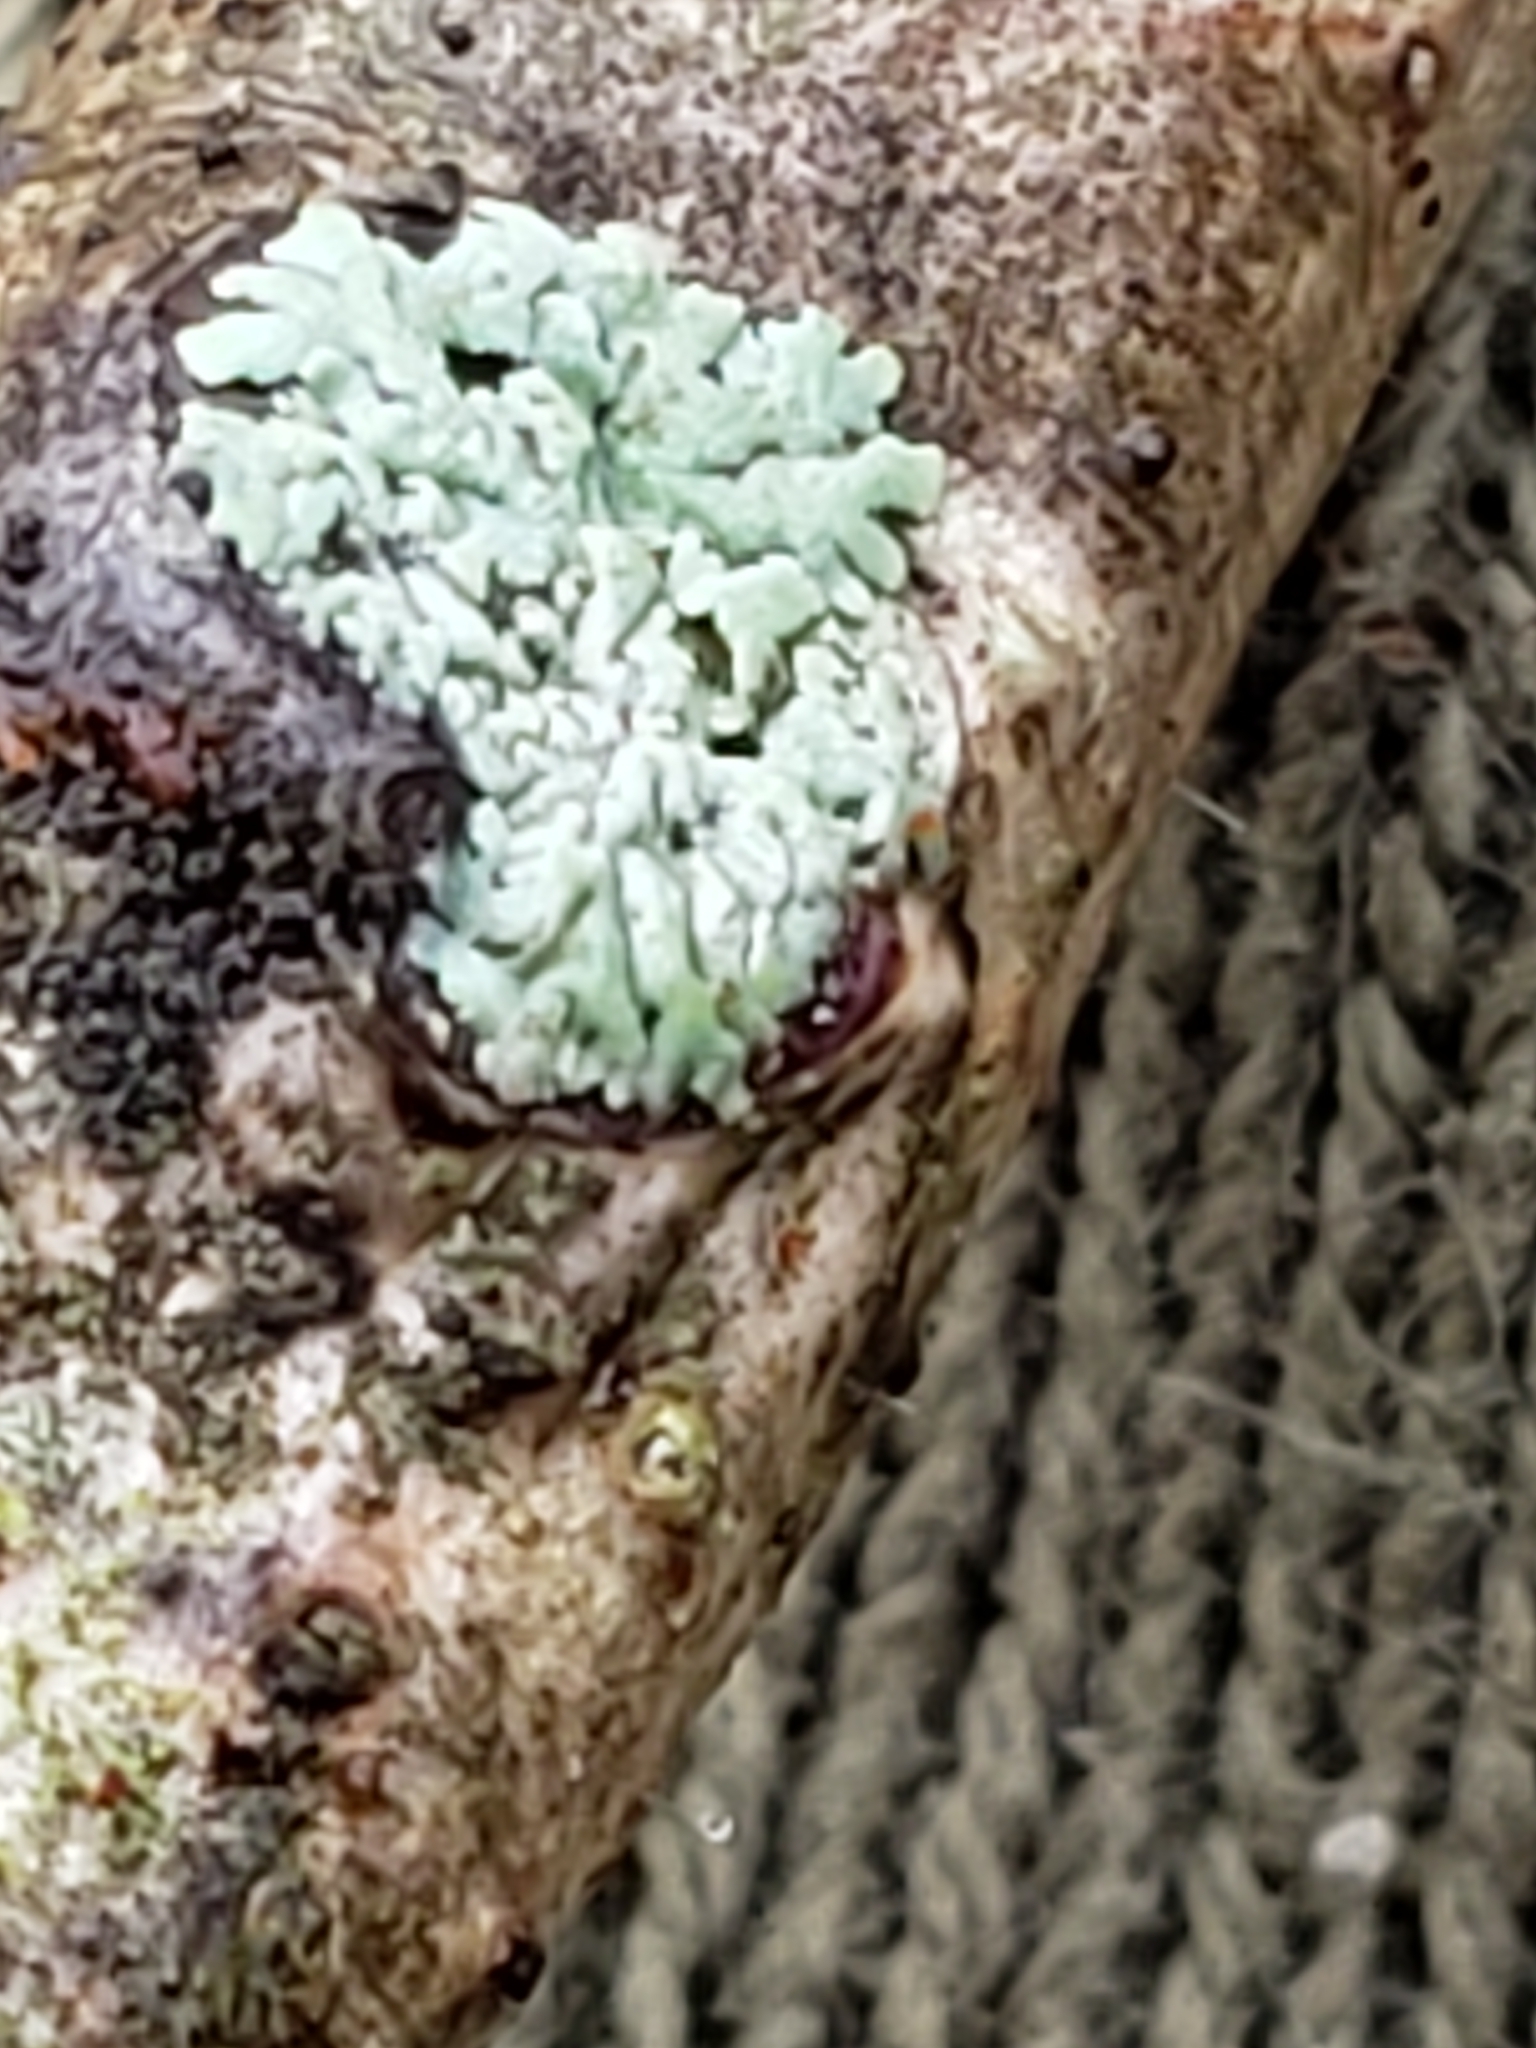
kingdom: Fungi
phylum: Ascomycota
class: Lecanoromycetes
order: Caliciales
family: Physciaceae
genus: Physcia
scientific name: Physcia stellaris
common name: Star rosette lichen
